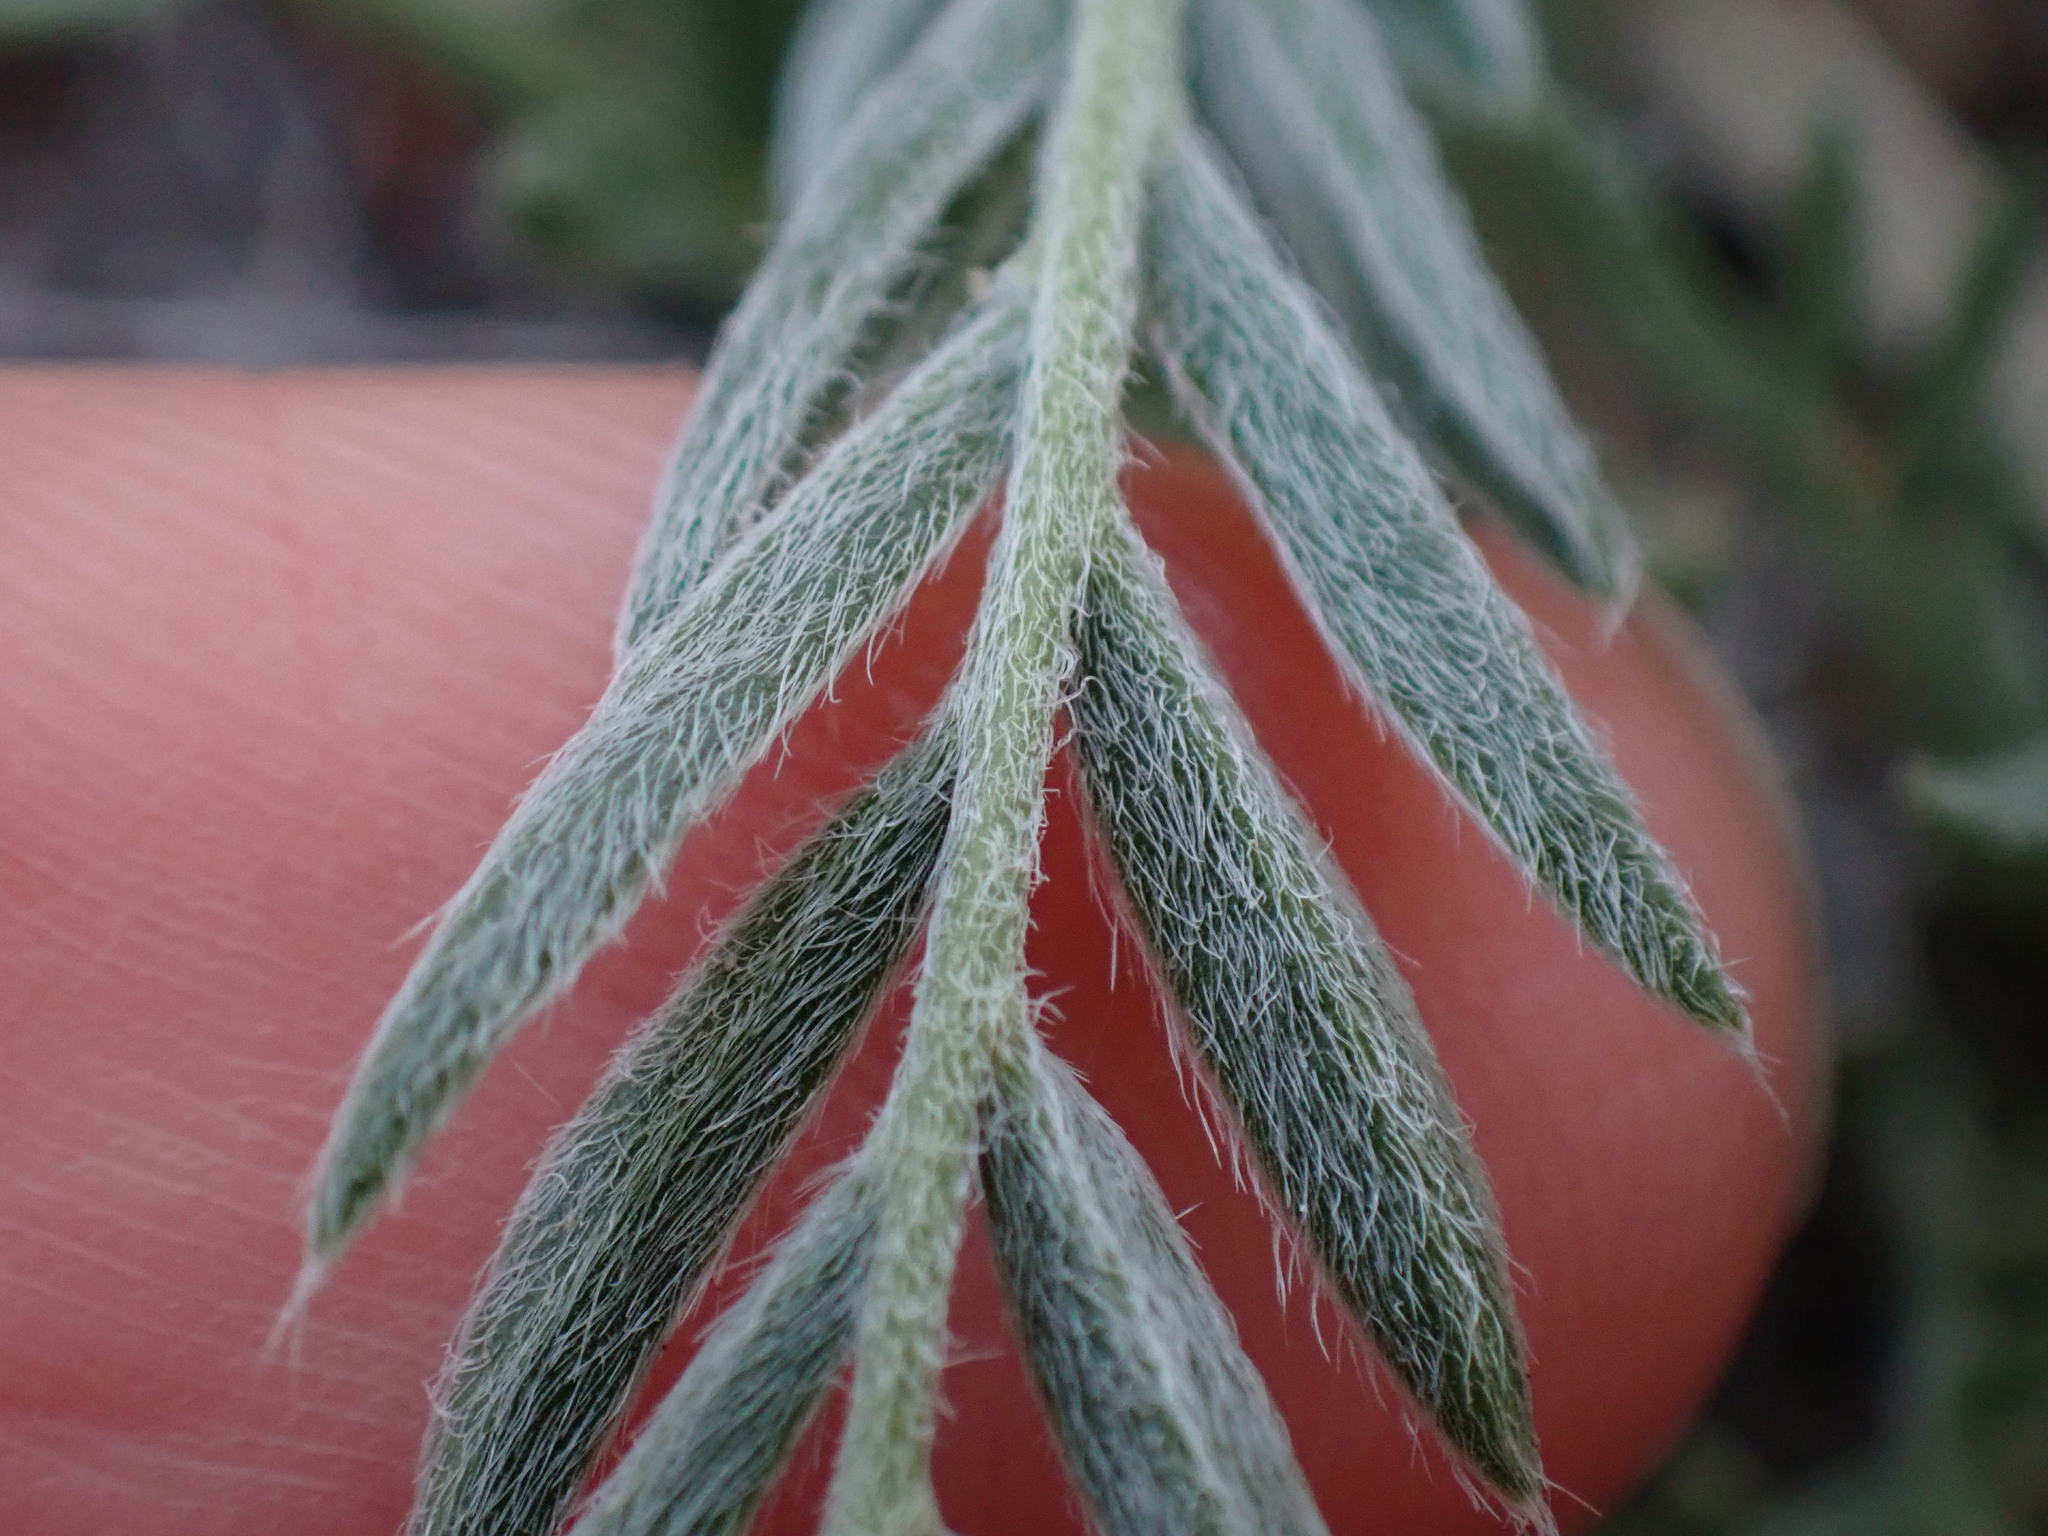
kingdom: Plantae
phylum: Tracheophyta
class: Magnoliopsida
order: Fabales
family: Fabaceae
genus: Oxytropis
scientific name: Oxytropis sericea
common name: Silky locoweed
